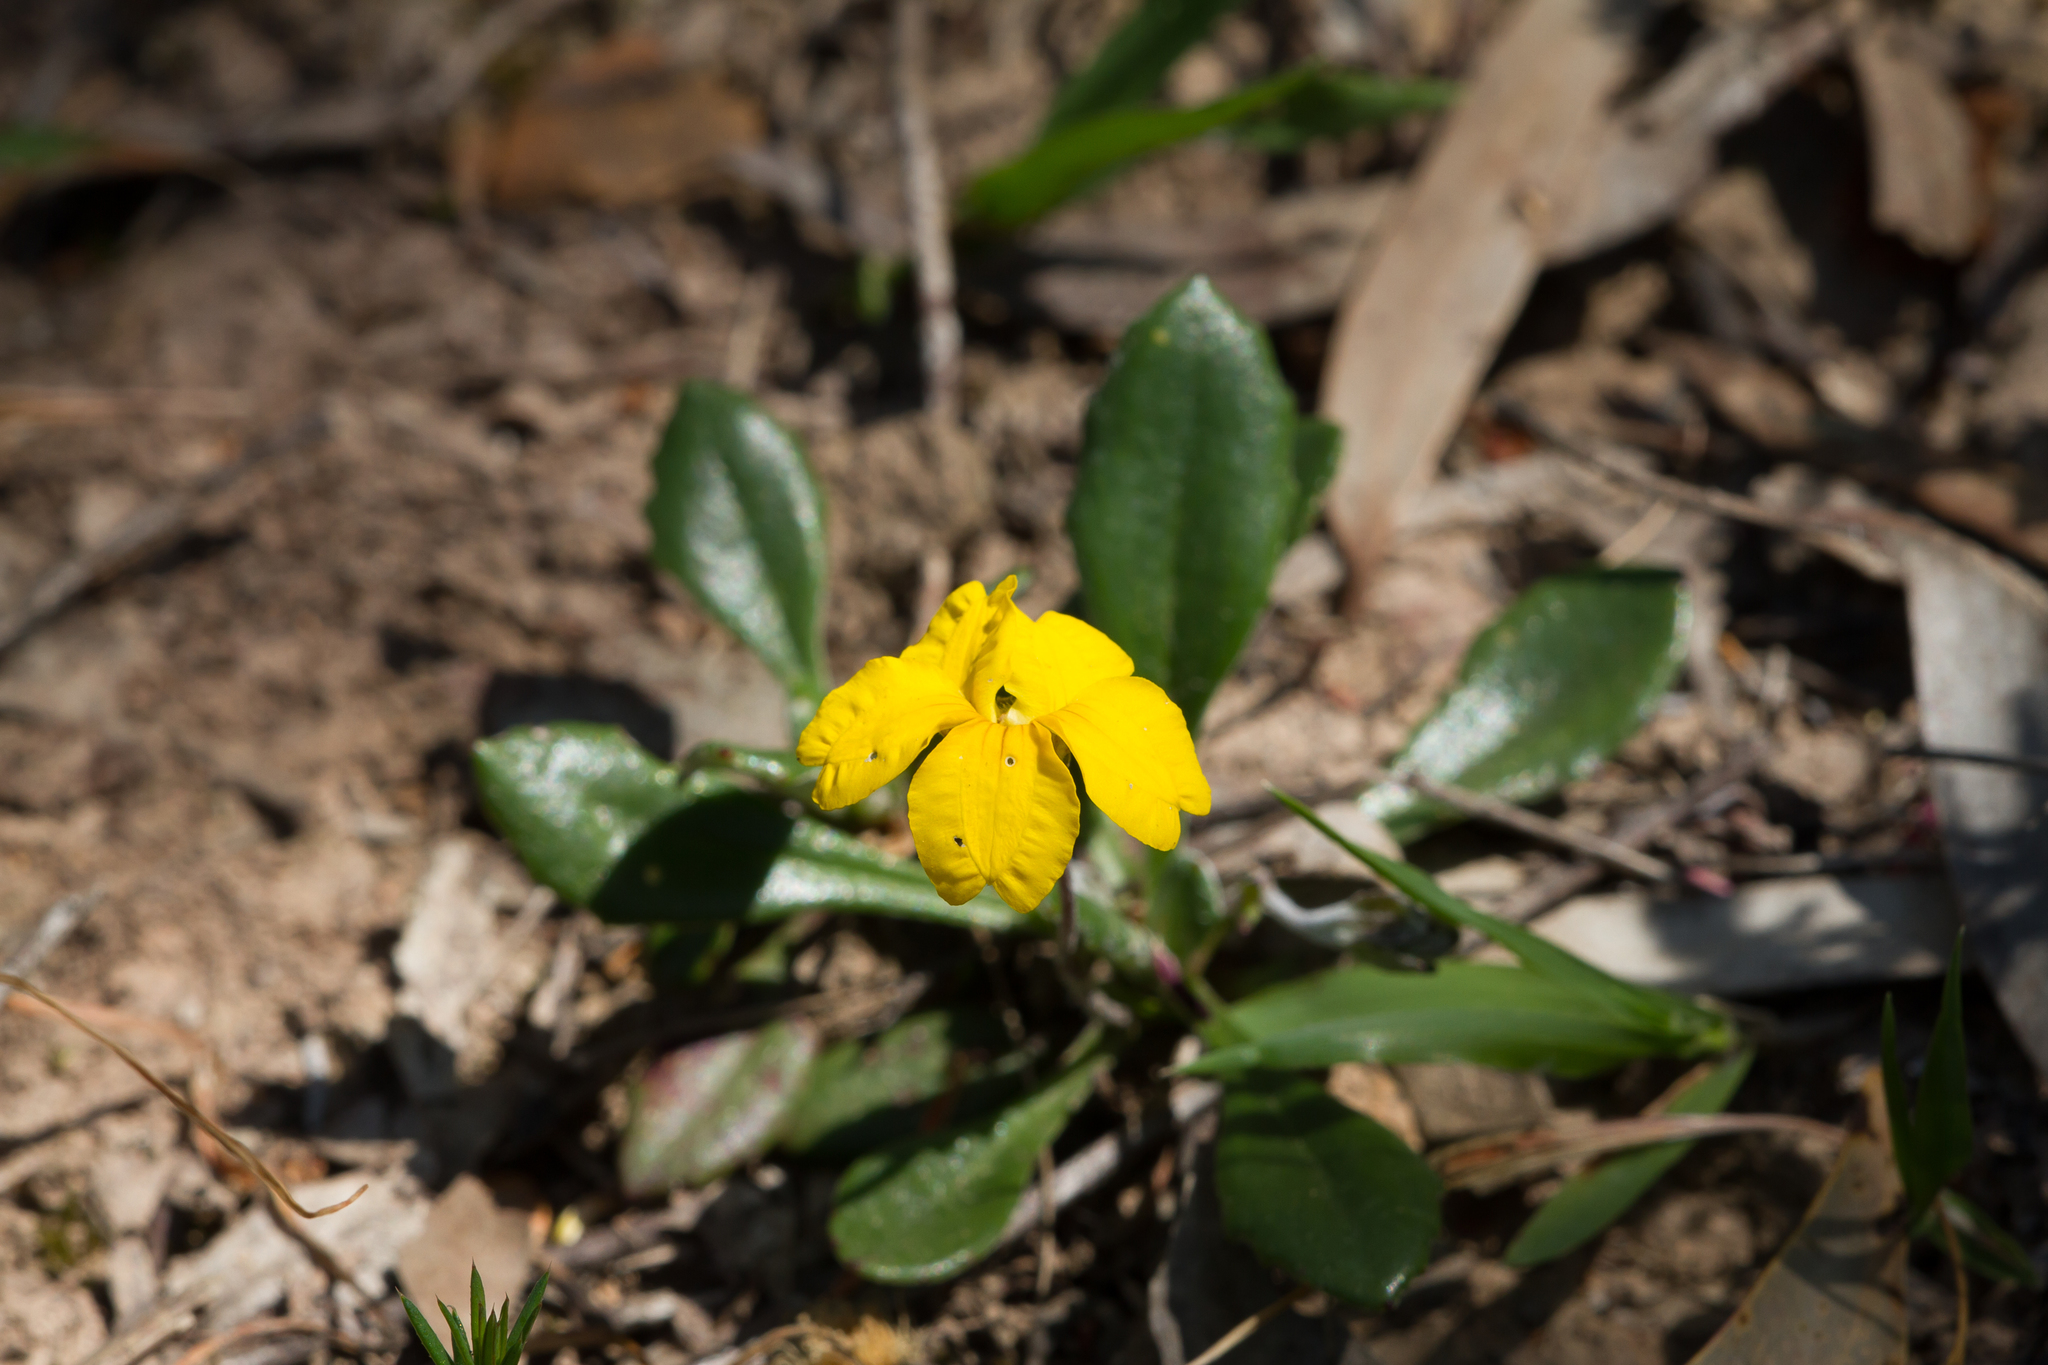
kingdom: Plantae
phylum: Tracheophyta
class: Magnoliopsida
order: Asterales
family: Goodeniaceae
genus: Goodenia
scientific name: Goodenia blackiana
